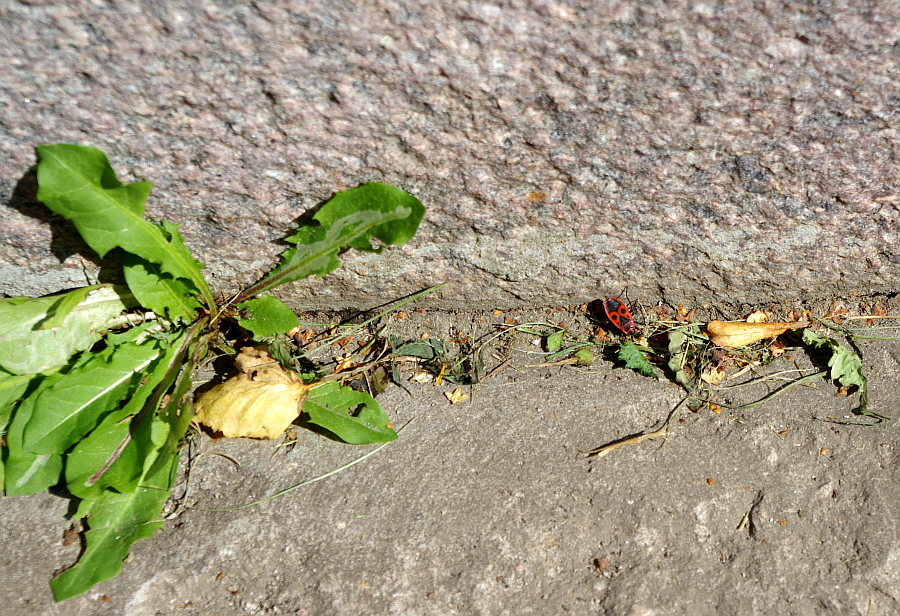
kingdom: Plantae
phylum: Tracheophyta
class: Magnoliopsida
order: Asterales
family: Asteraceae
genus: Taraxacum
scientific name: Taraxacum officinale
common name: Common dandelion
